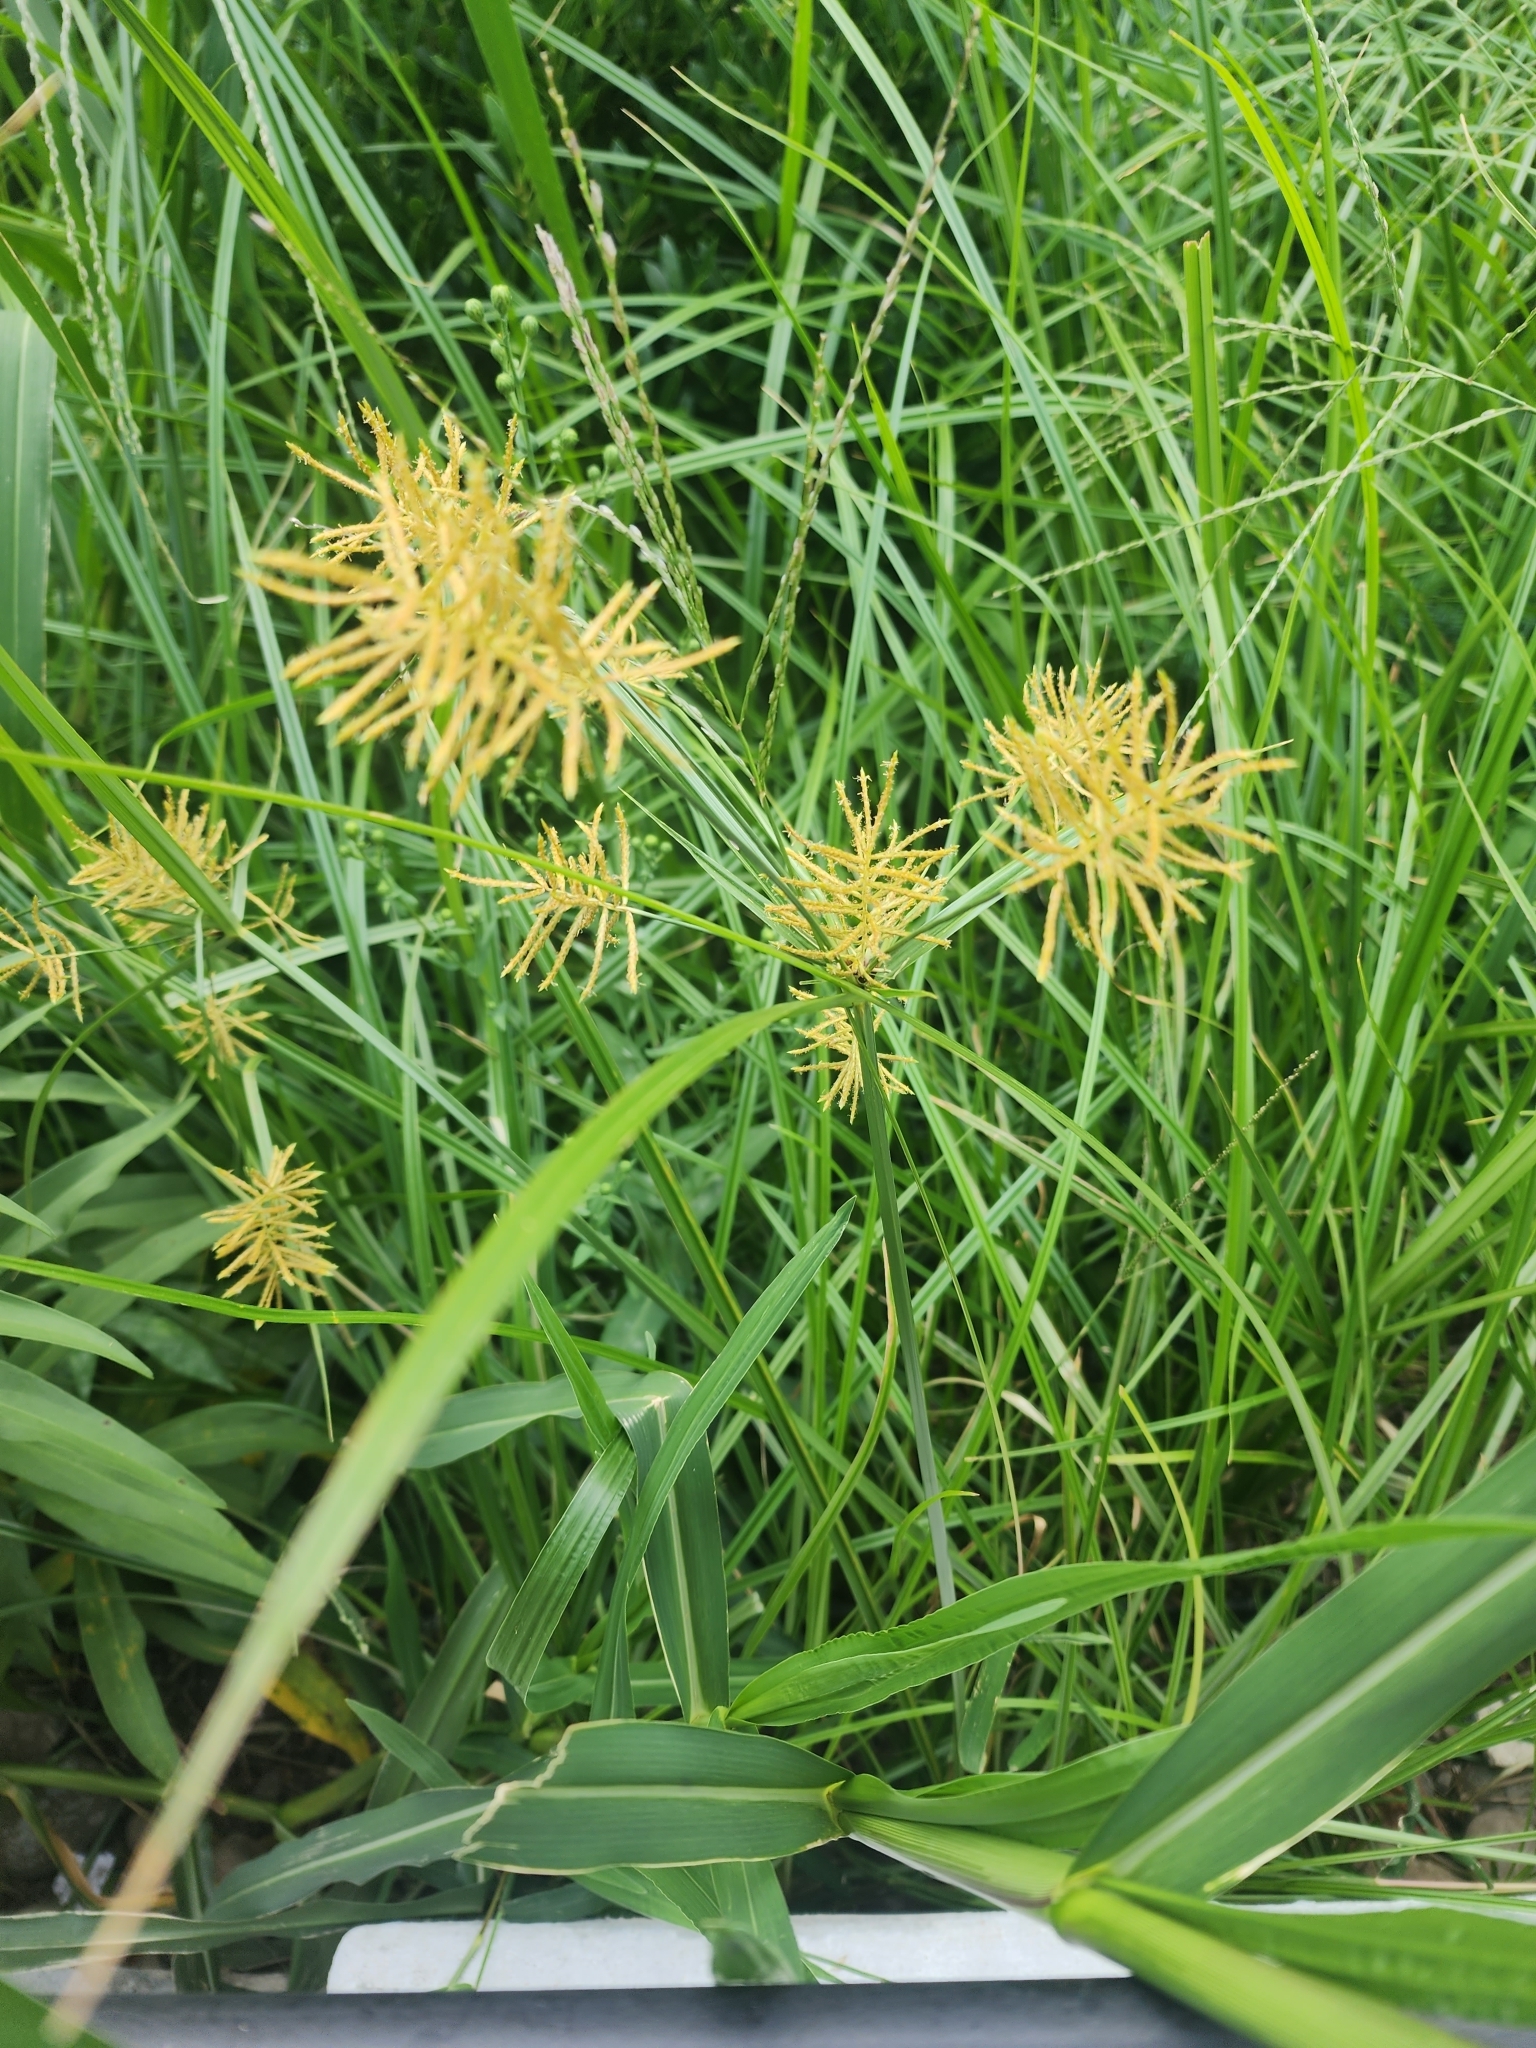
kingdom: Plantae
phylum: Tracheophyta
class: Liliopsida
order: Poales
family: Cyperaceae
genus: Cyperus
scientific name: Cyperus esculentus
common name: Yellow nutsedge
